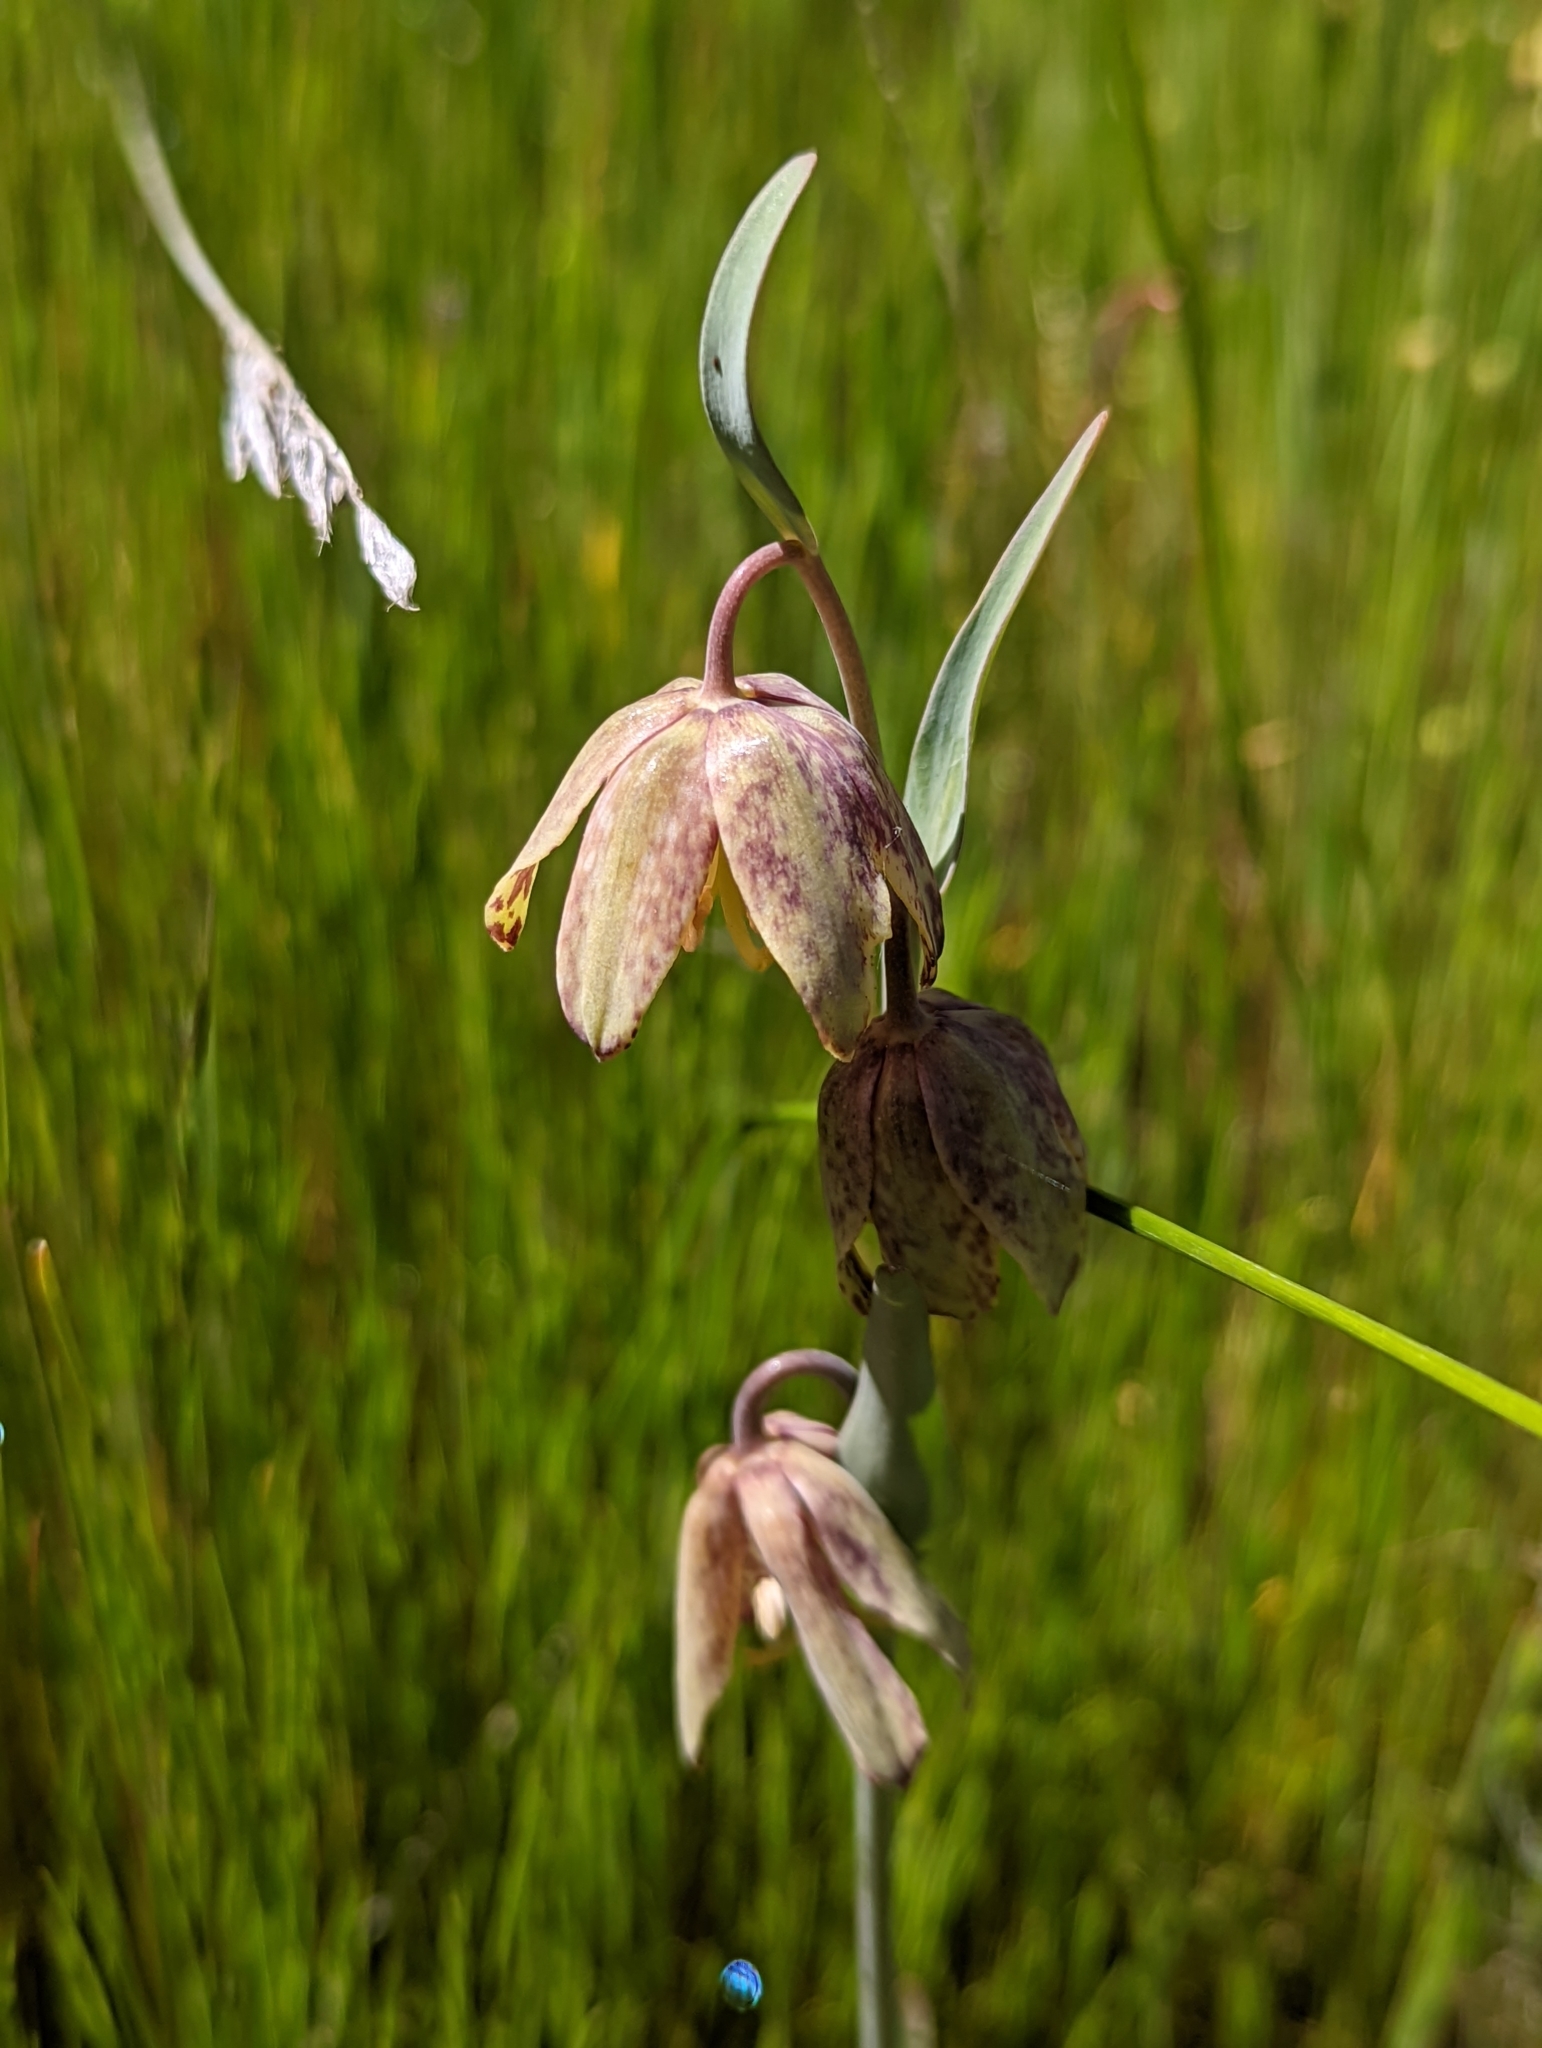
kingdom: Plantae
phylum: Tracheophyta
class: Liliopsida
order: Liliales
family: Liliaceae
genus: Fritillaria
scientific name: Fritillaria affinis
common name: Ojai fritillary
